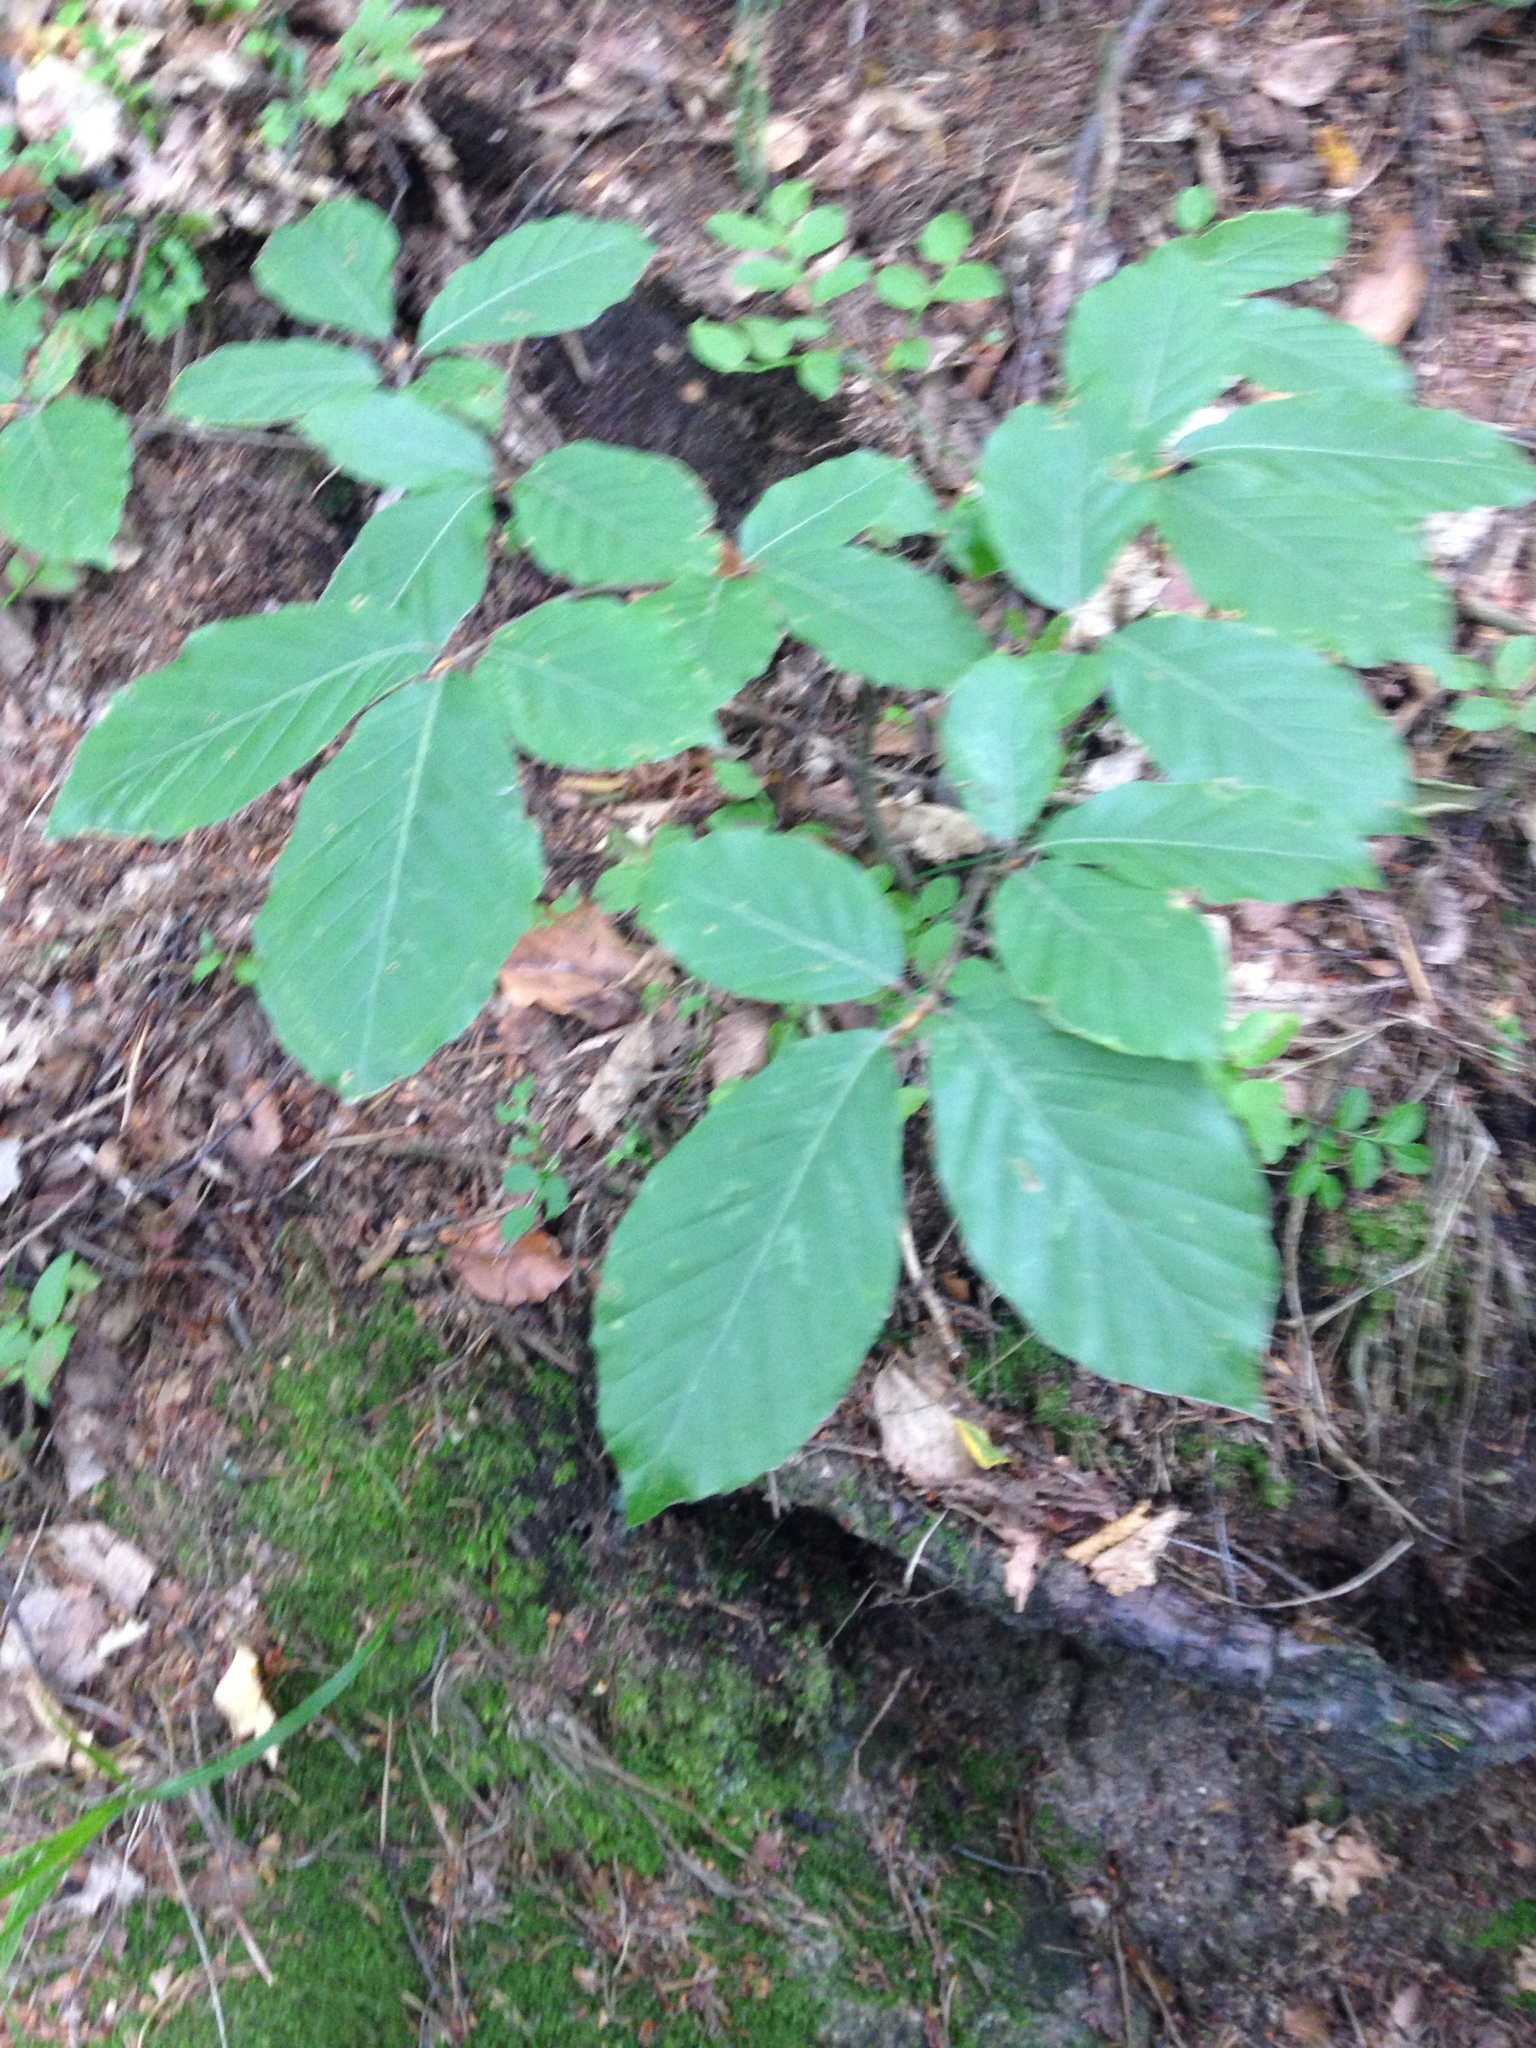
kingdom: Plantae
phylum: Tracheophyta
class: Magnoliopsida
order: Fagales
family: Fagaceae
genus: Fagus
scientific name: Fagus sylvatica
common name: Beech
